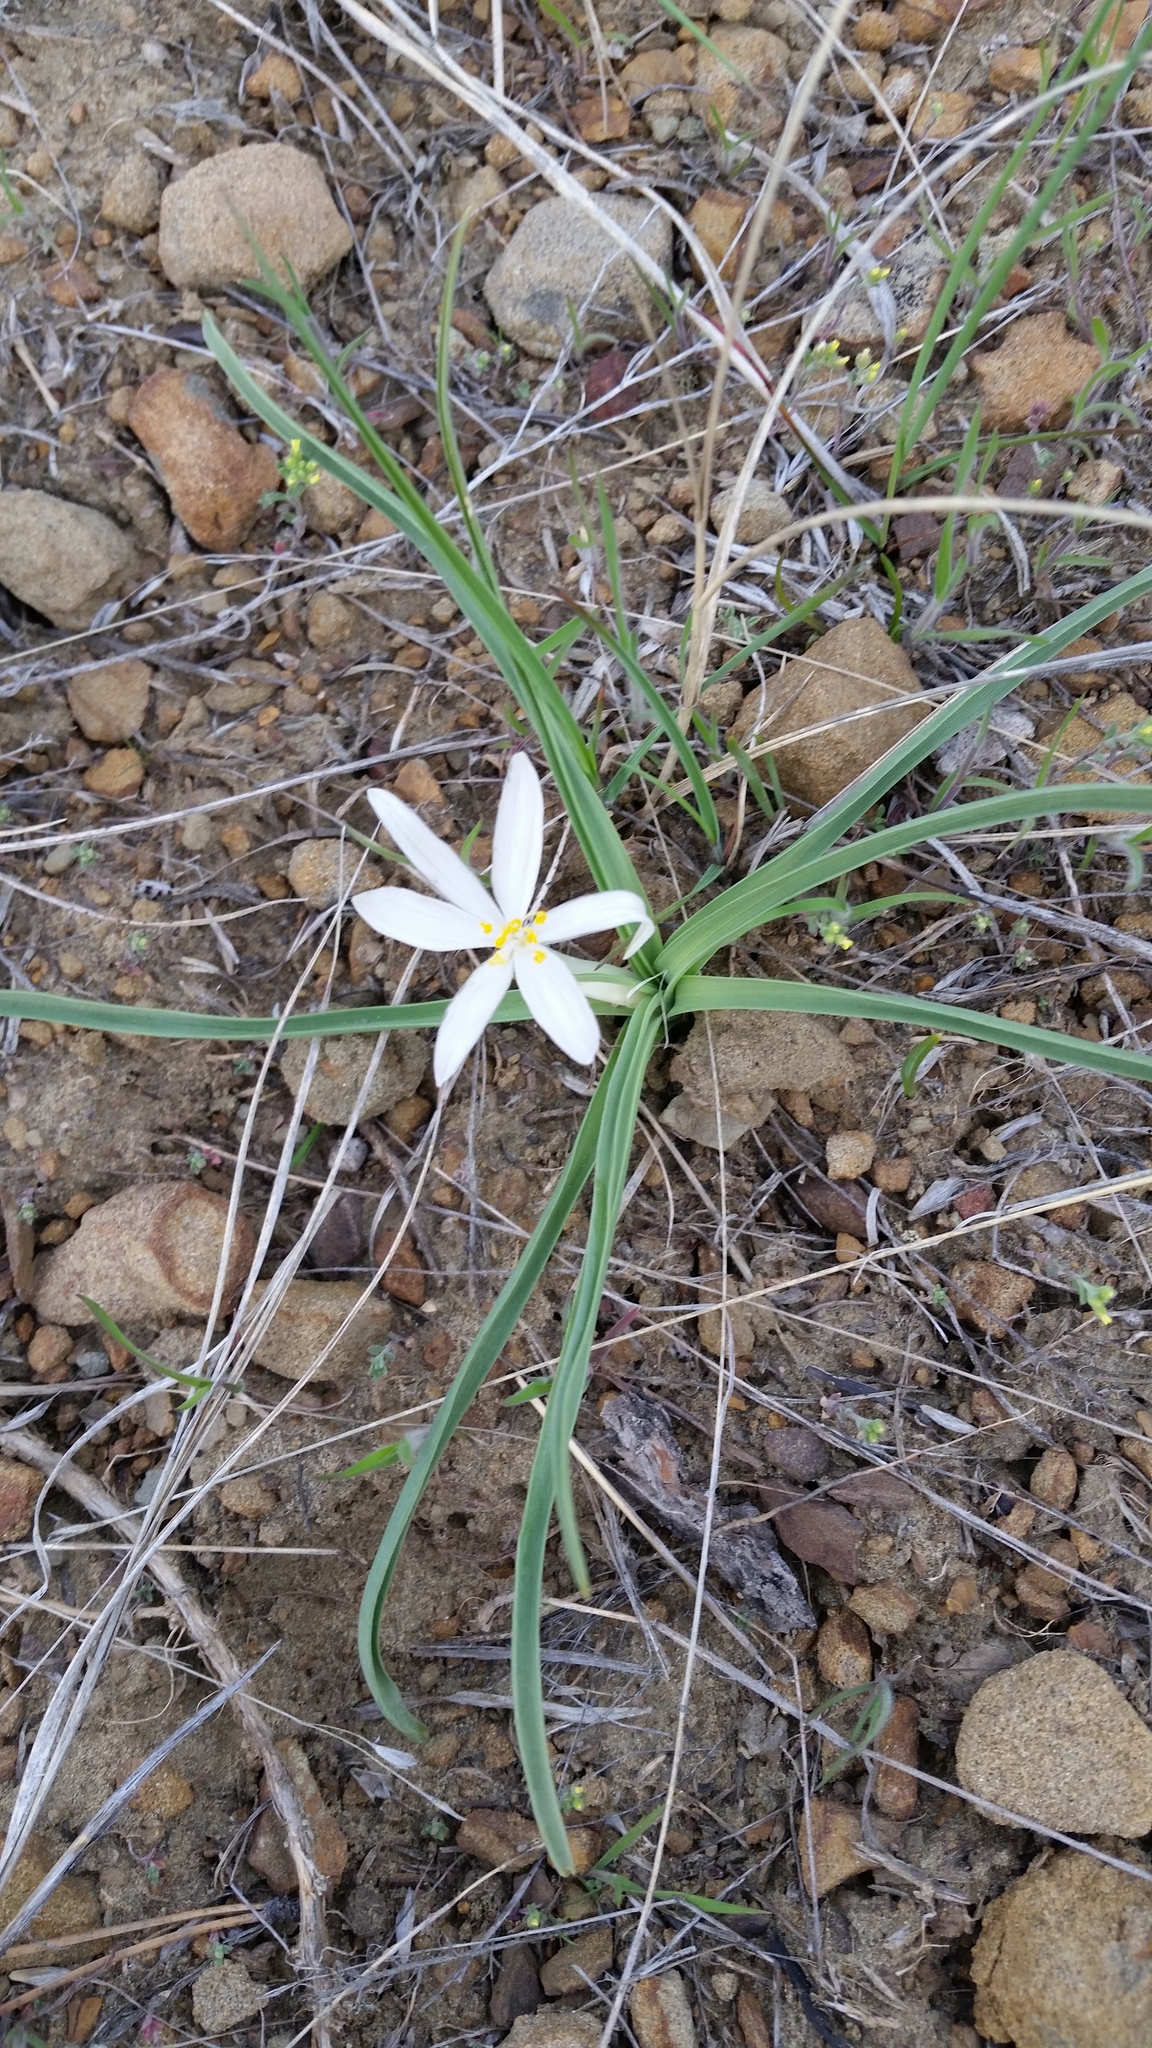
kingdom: Plantae
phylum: Tracheophyta
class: Liliopsida
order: Asparagales
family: Asparagaceae
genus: Leucocrinum
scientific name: Leucocrinum montanum
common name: Mountain-lily
